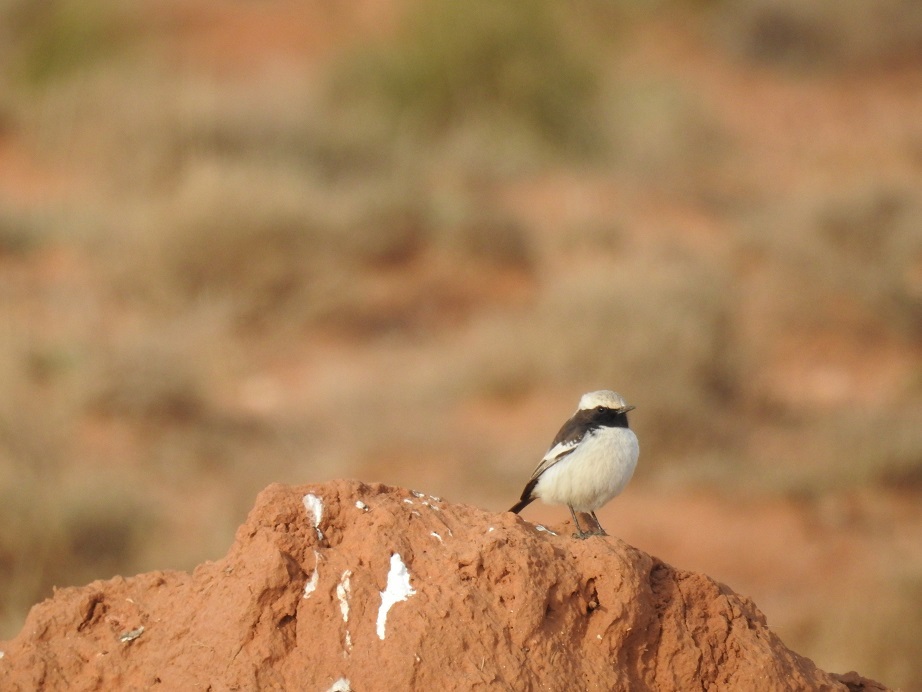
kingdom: Animalia
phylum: Chordata
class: Aves
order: Passeriformes
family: Muscicapidae
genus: Oenanthe
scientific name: Oenanthe moesta
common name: Red-rumped wheatear
